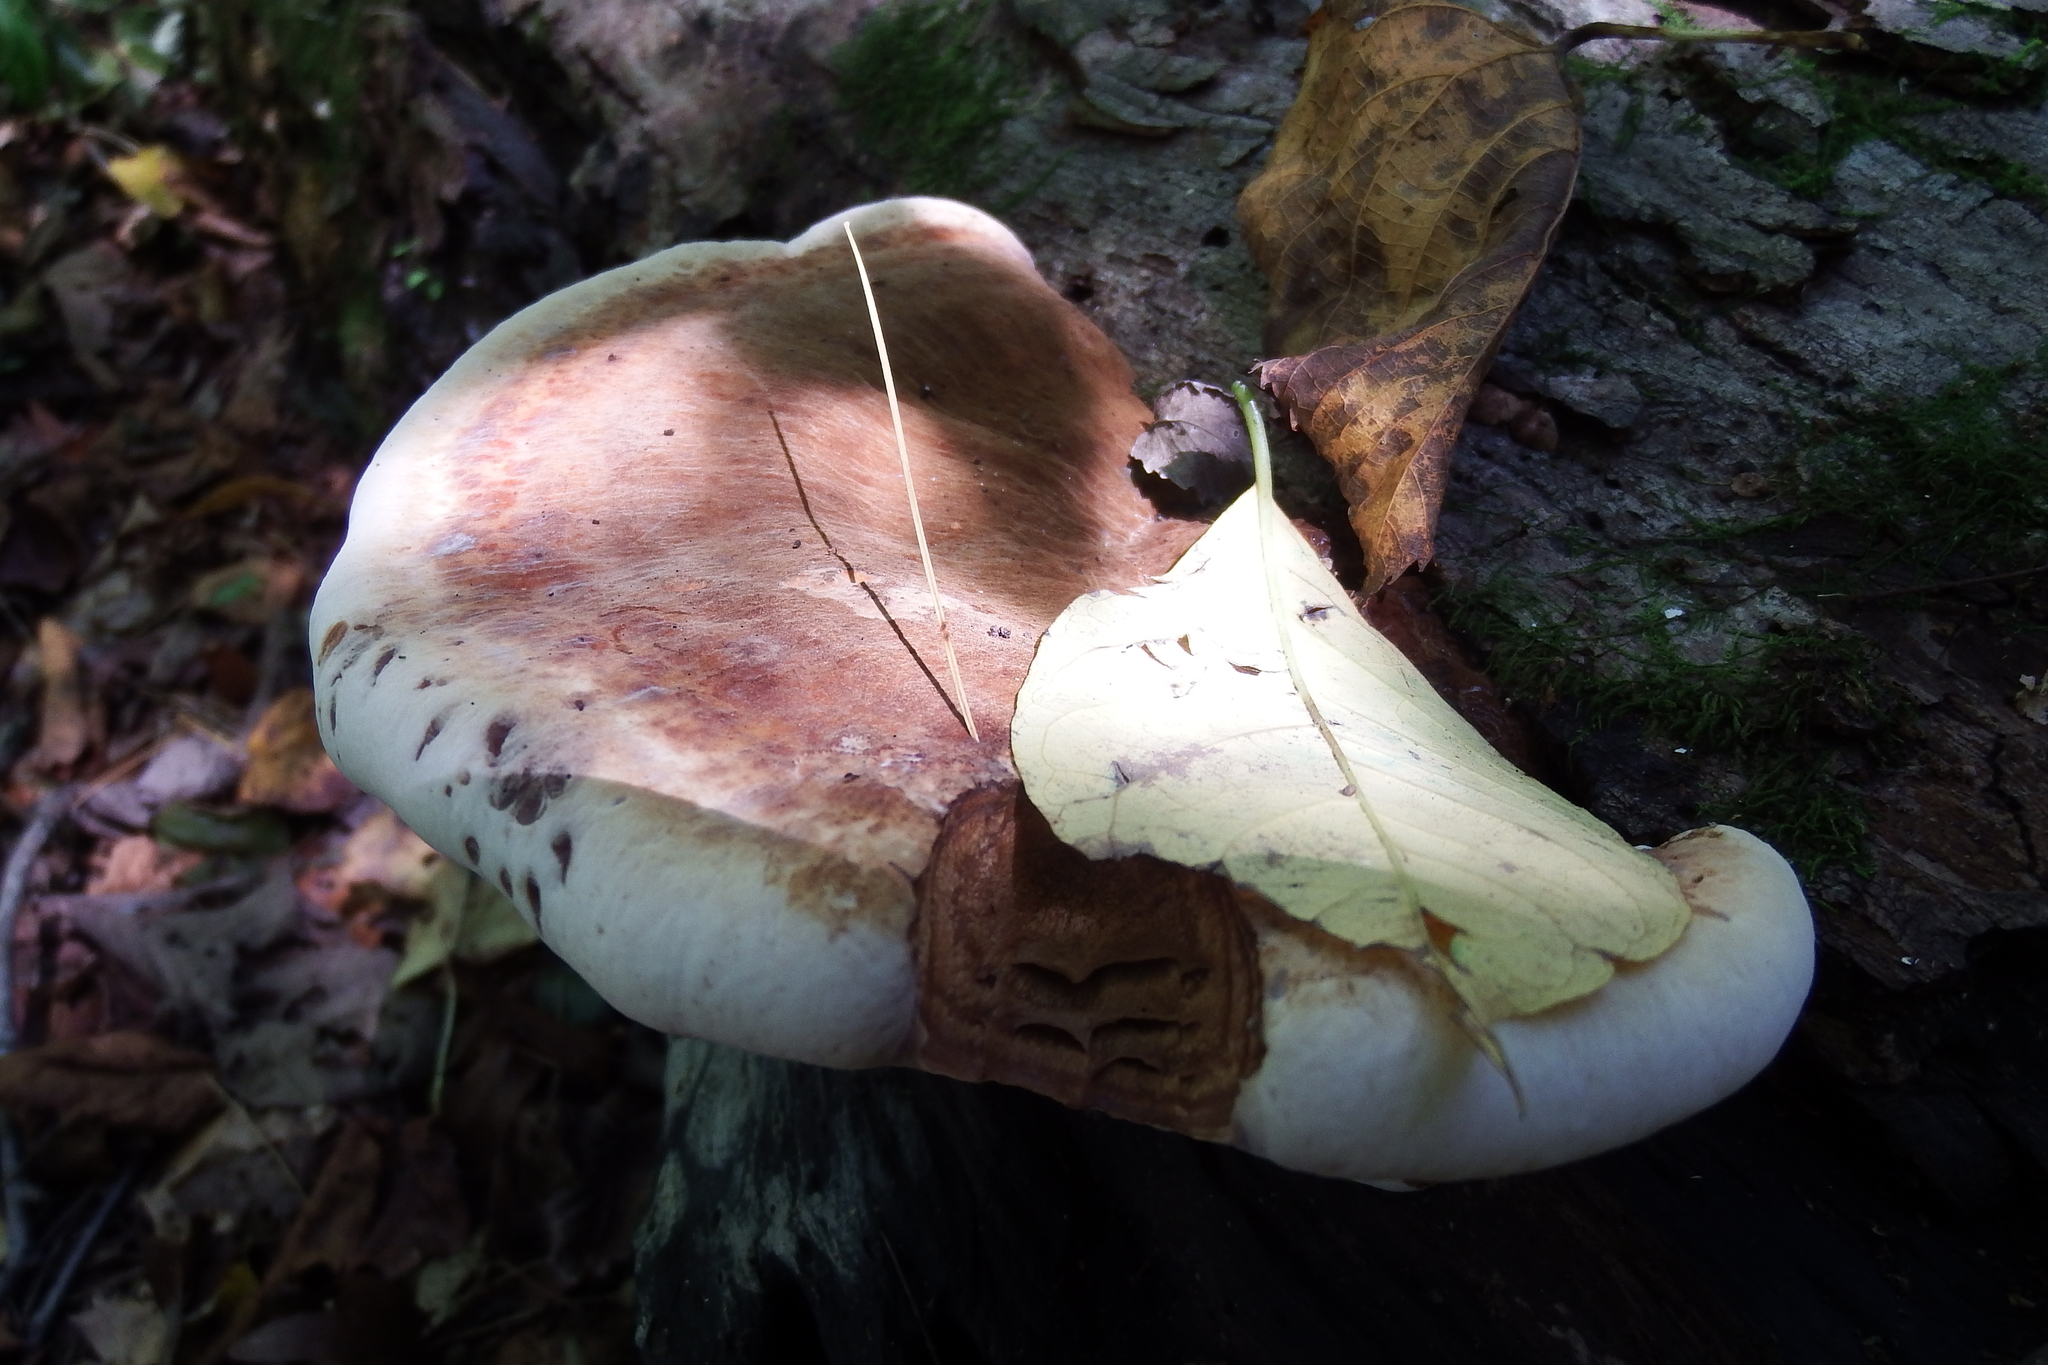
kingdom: Fungi
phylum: Basidiomycota
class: Agaricomycetes
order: Polyporales
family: Ischnodermataceae
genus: Ischnoderma
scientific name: Ischnoderma resinosum
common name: Resinous polypore
